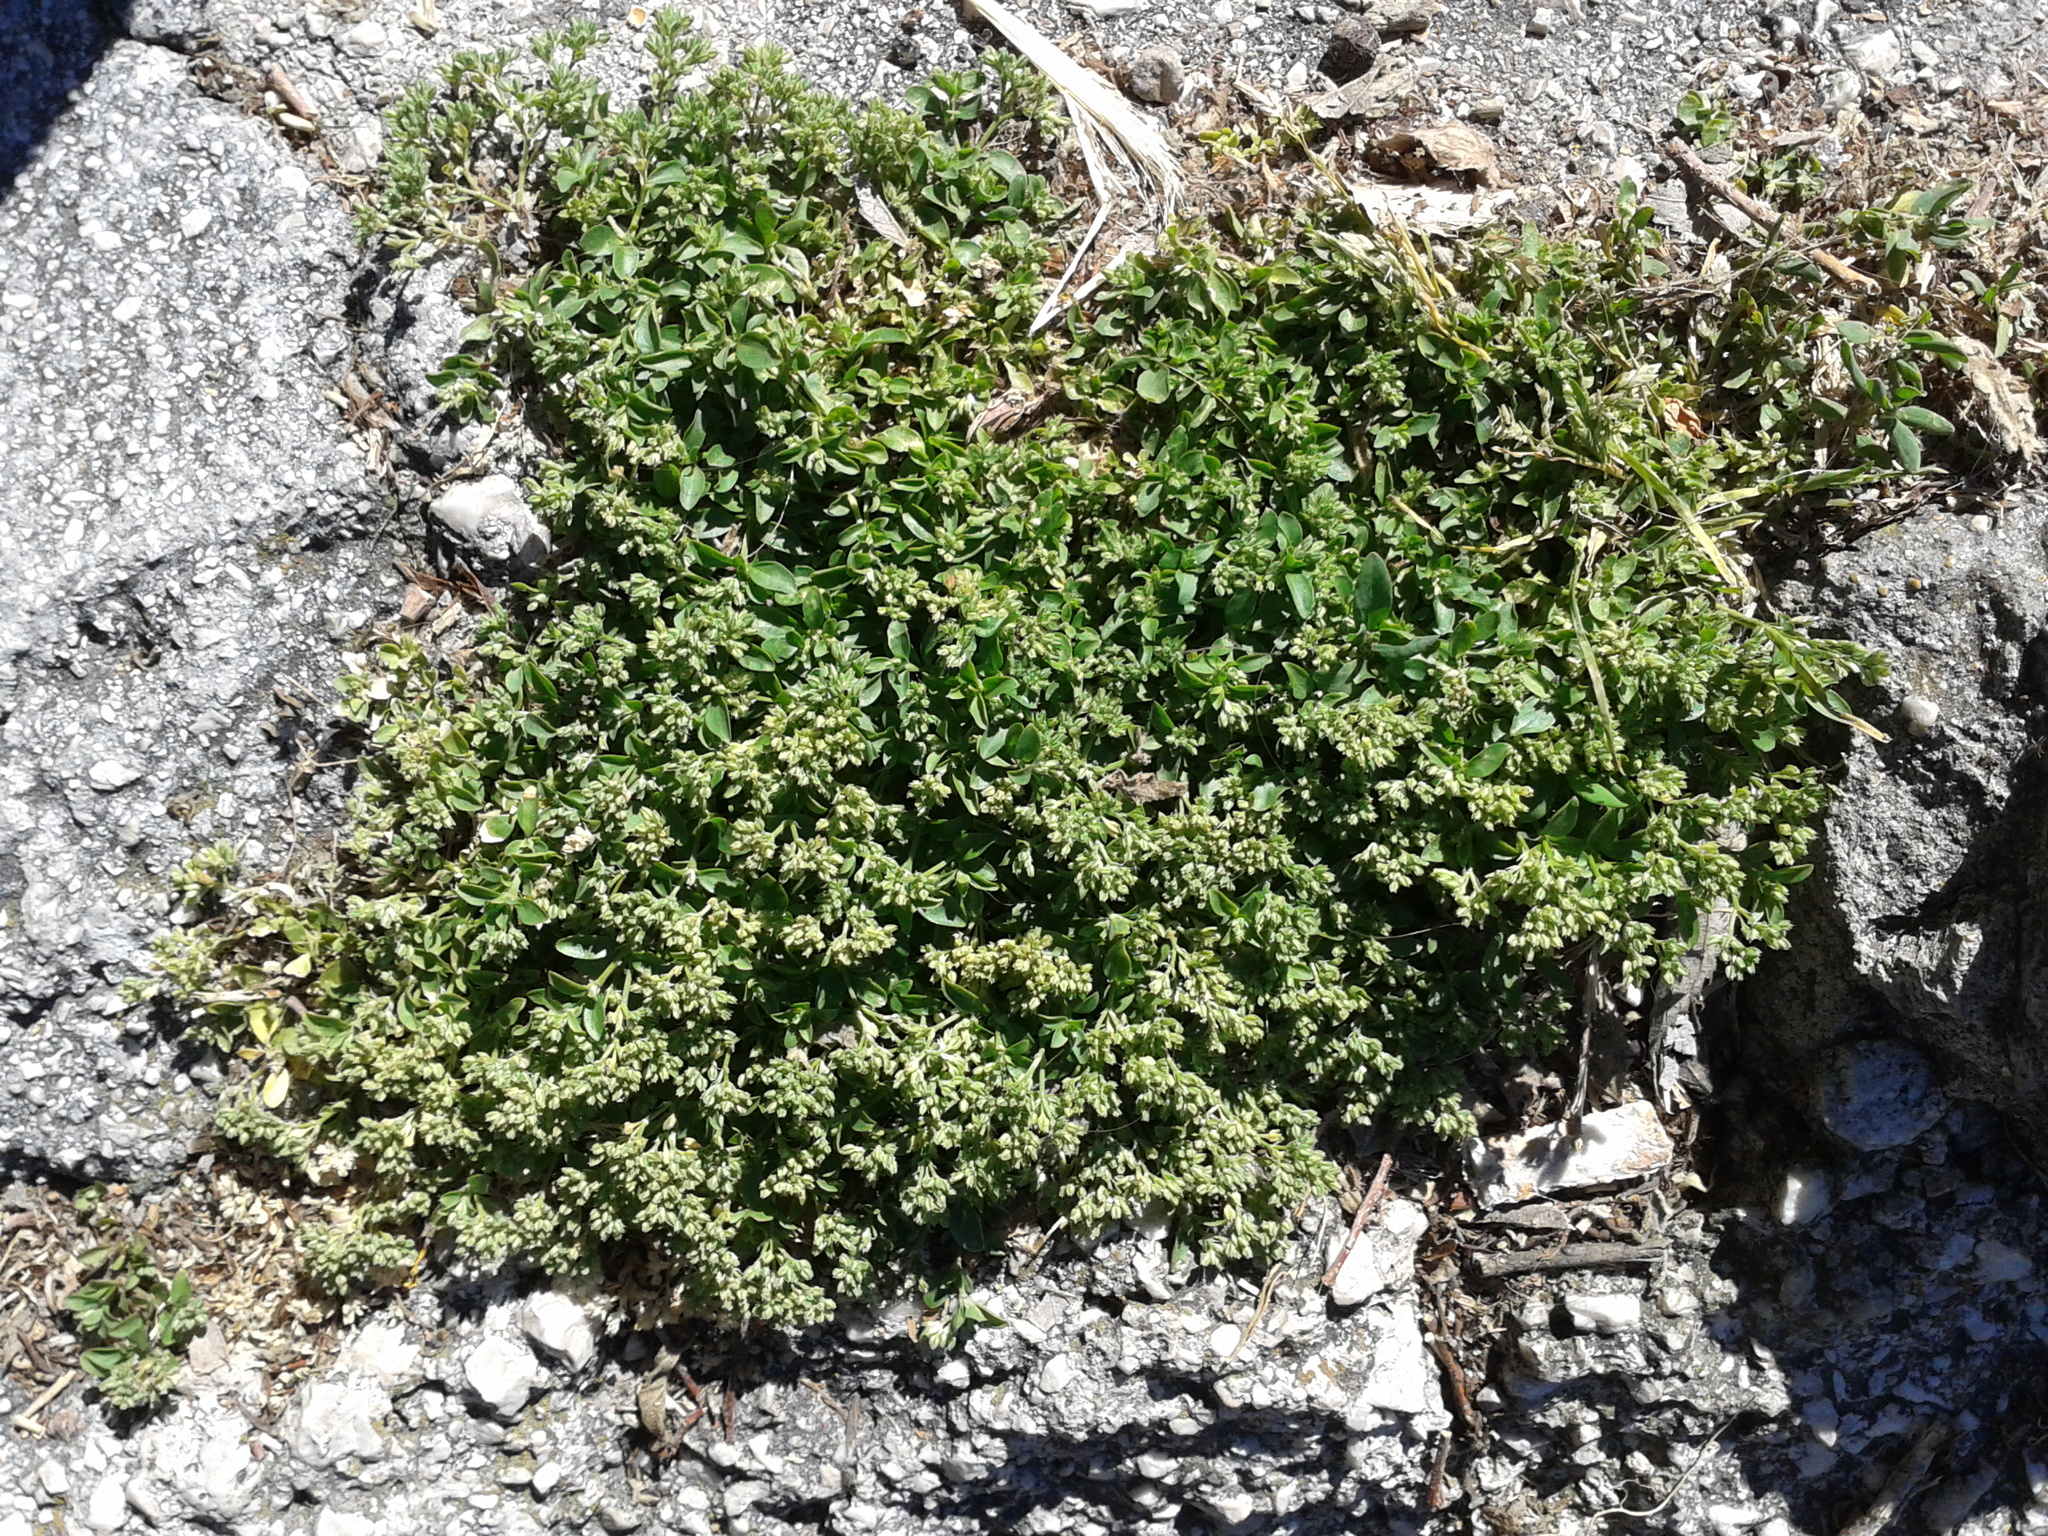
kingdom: Plantae
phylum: Tracheophyta
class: Magnoliopsida
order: Caryophyllales
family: Caryophyllaceae
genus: Polycarpon
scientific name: Polycarpon tetraphyllum
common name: Four-leaved all-seed
